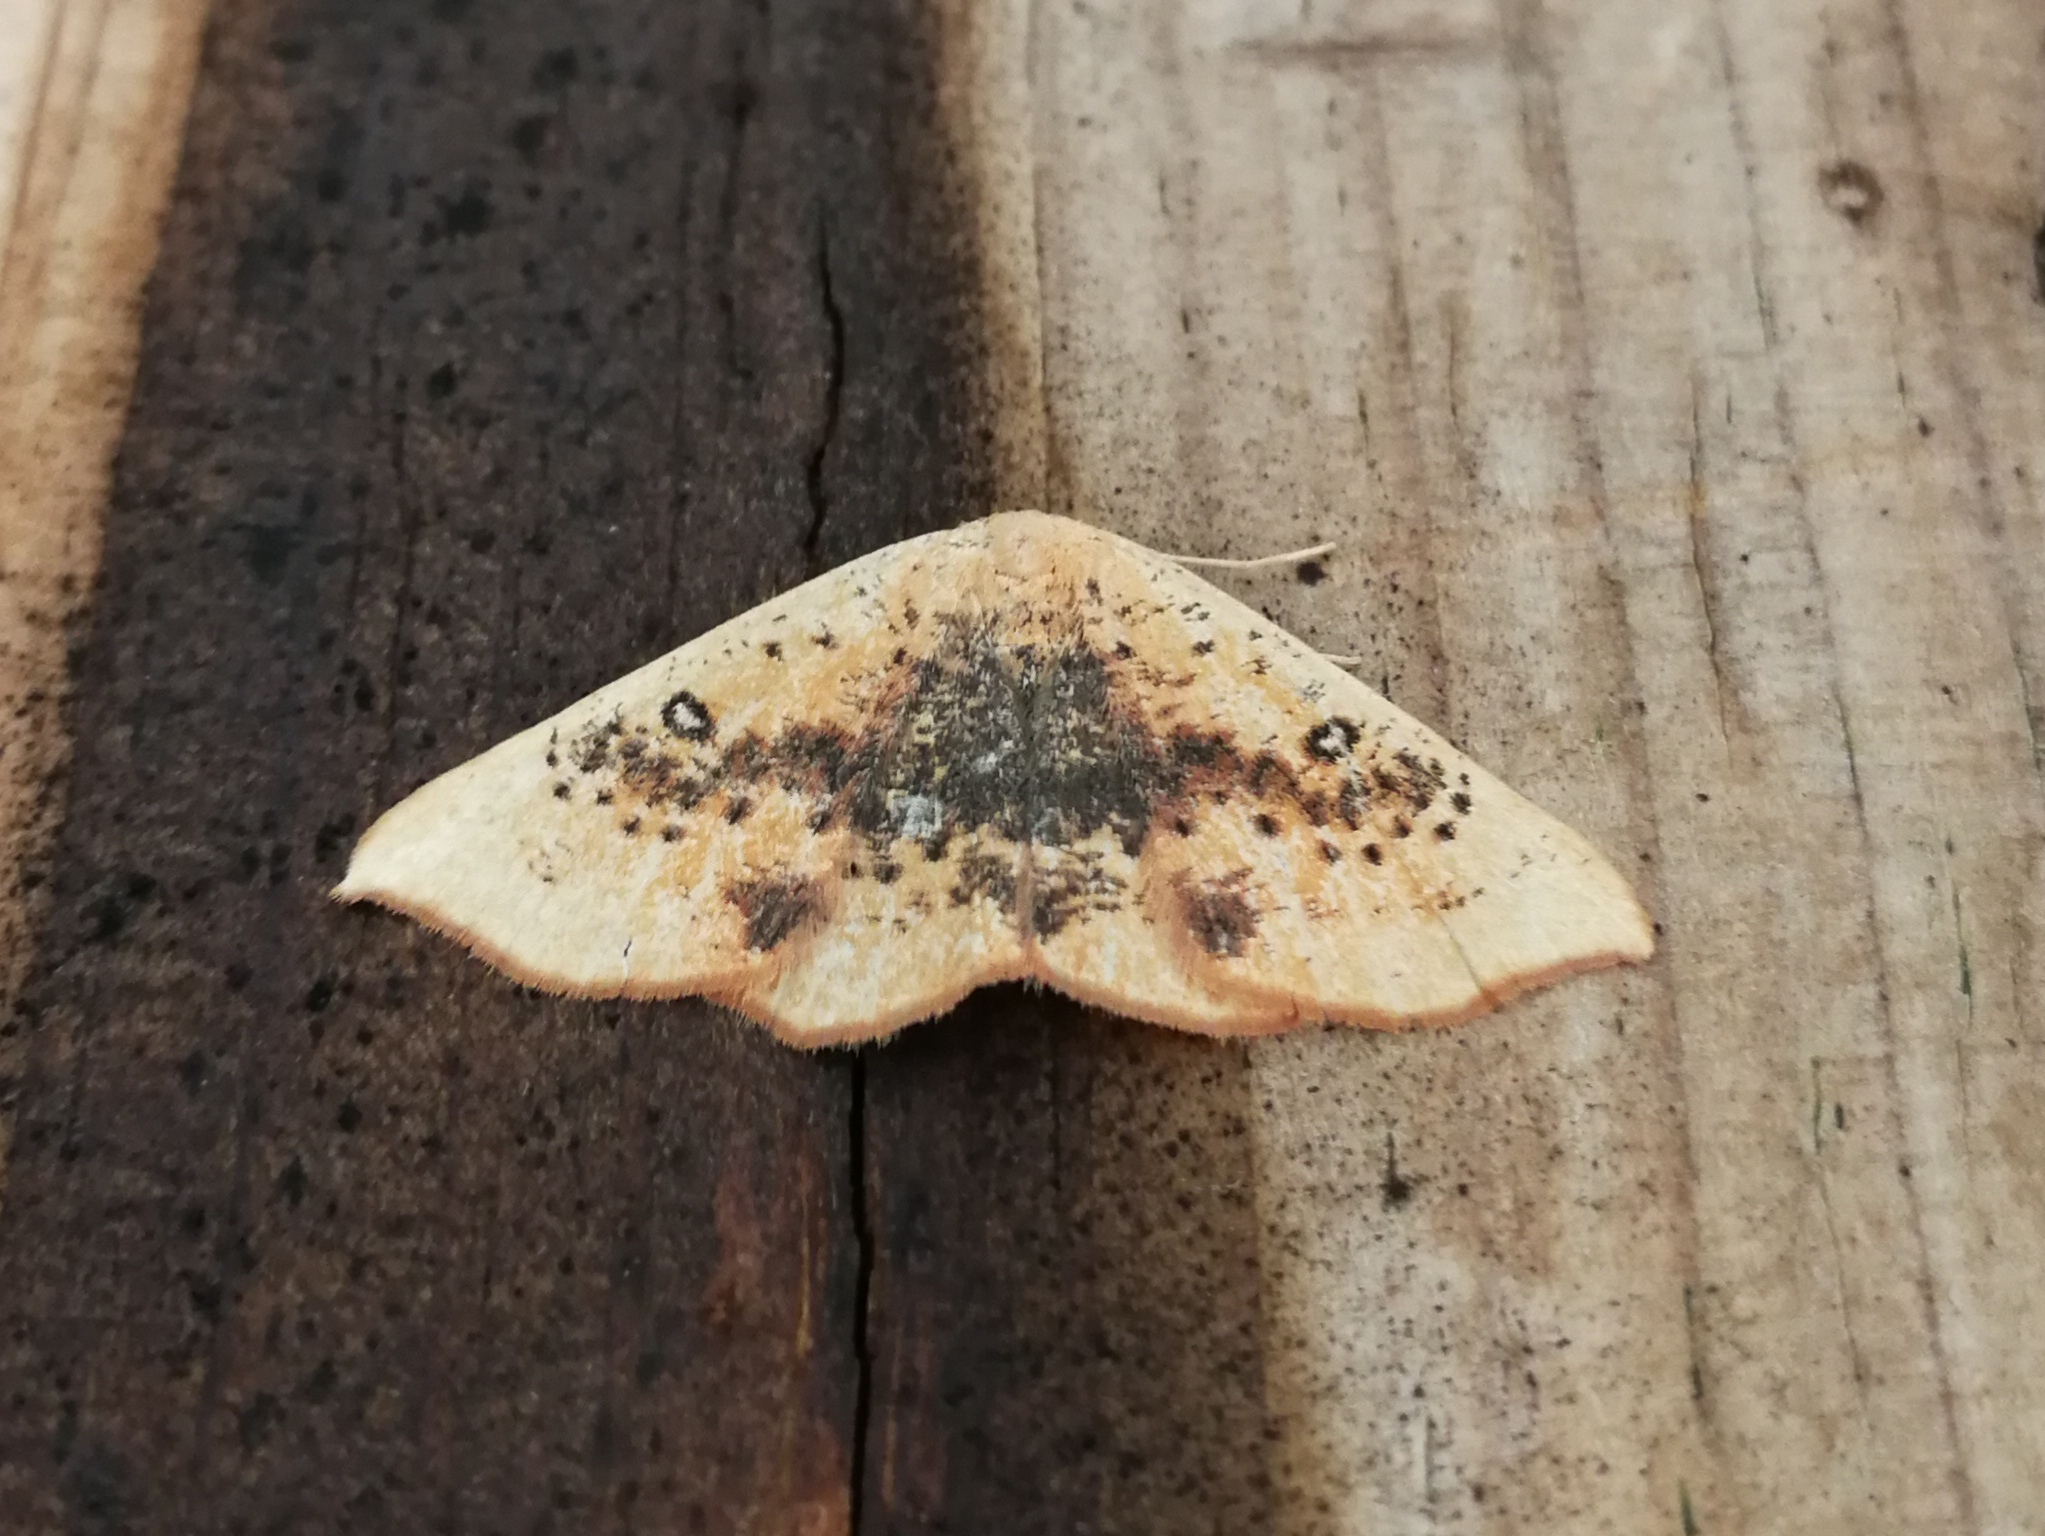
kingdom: Animalia
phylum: Arthropoda
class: Insecta
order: Lepidoptera
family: Geometridae
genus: Cyclophora
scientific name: Cyclophora lennigiaria
